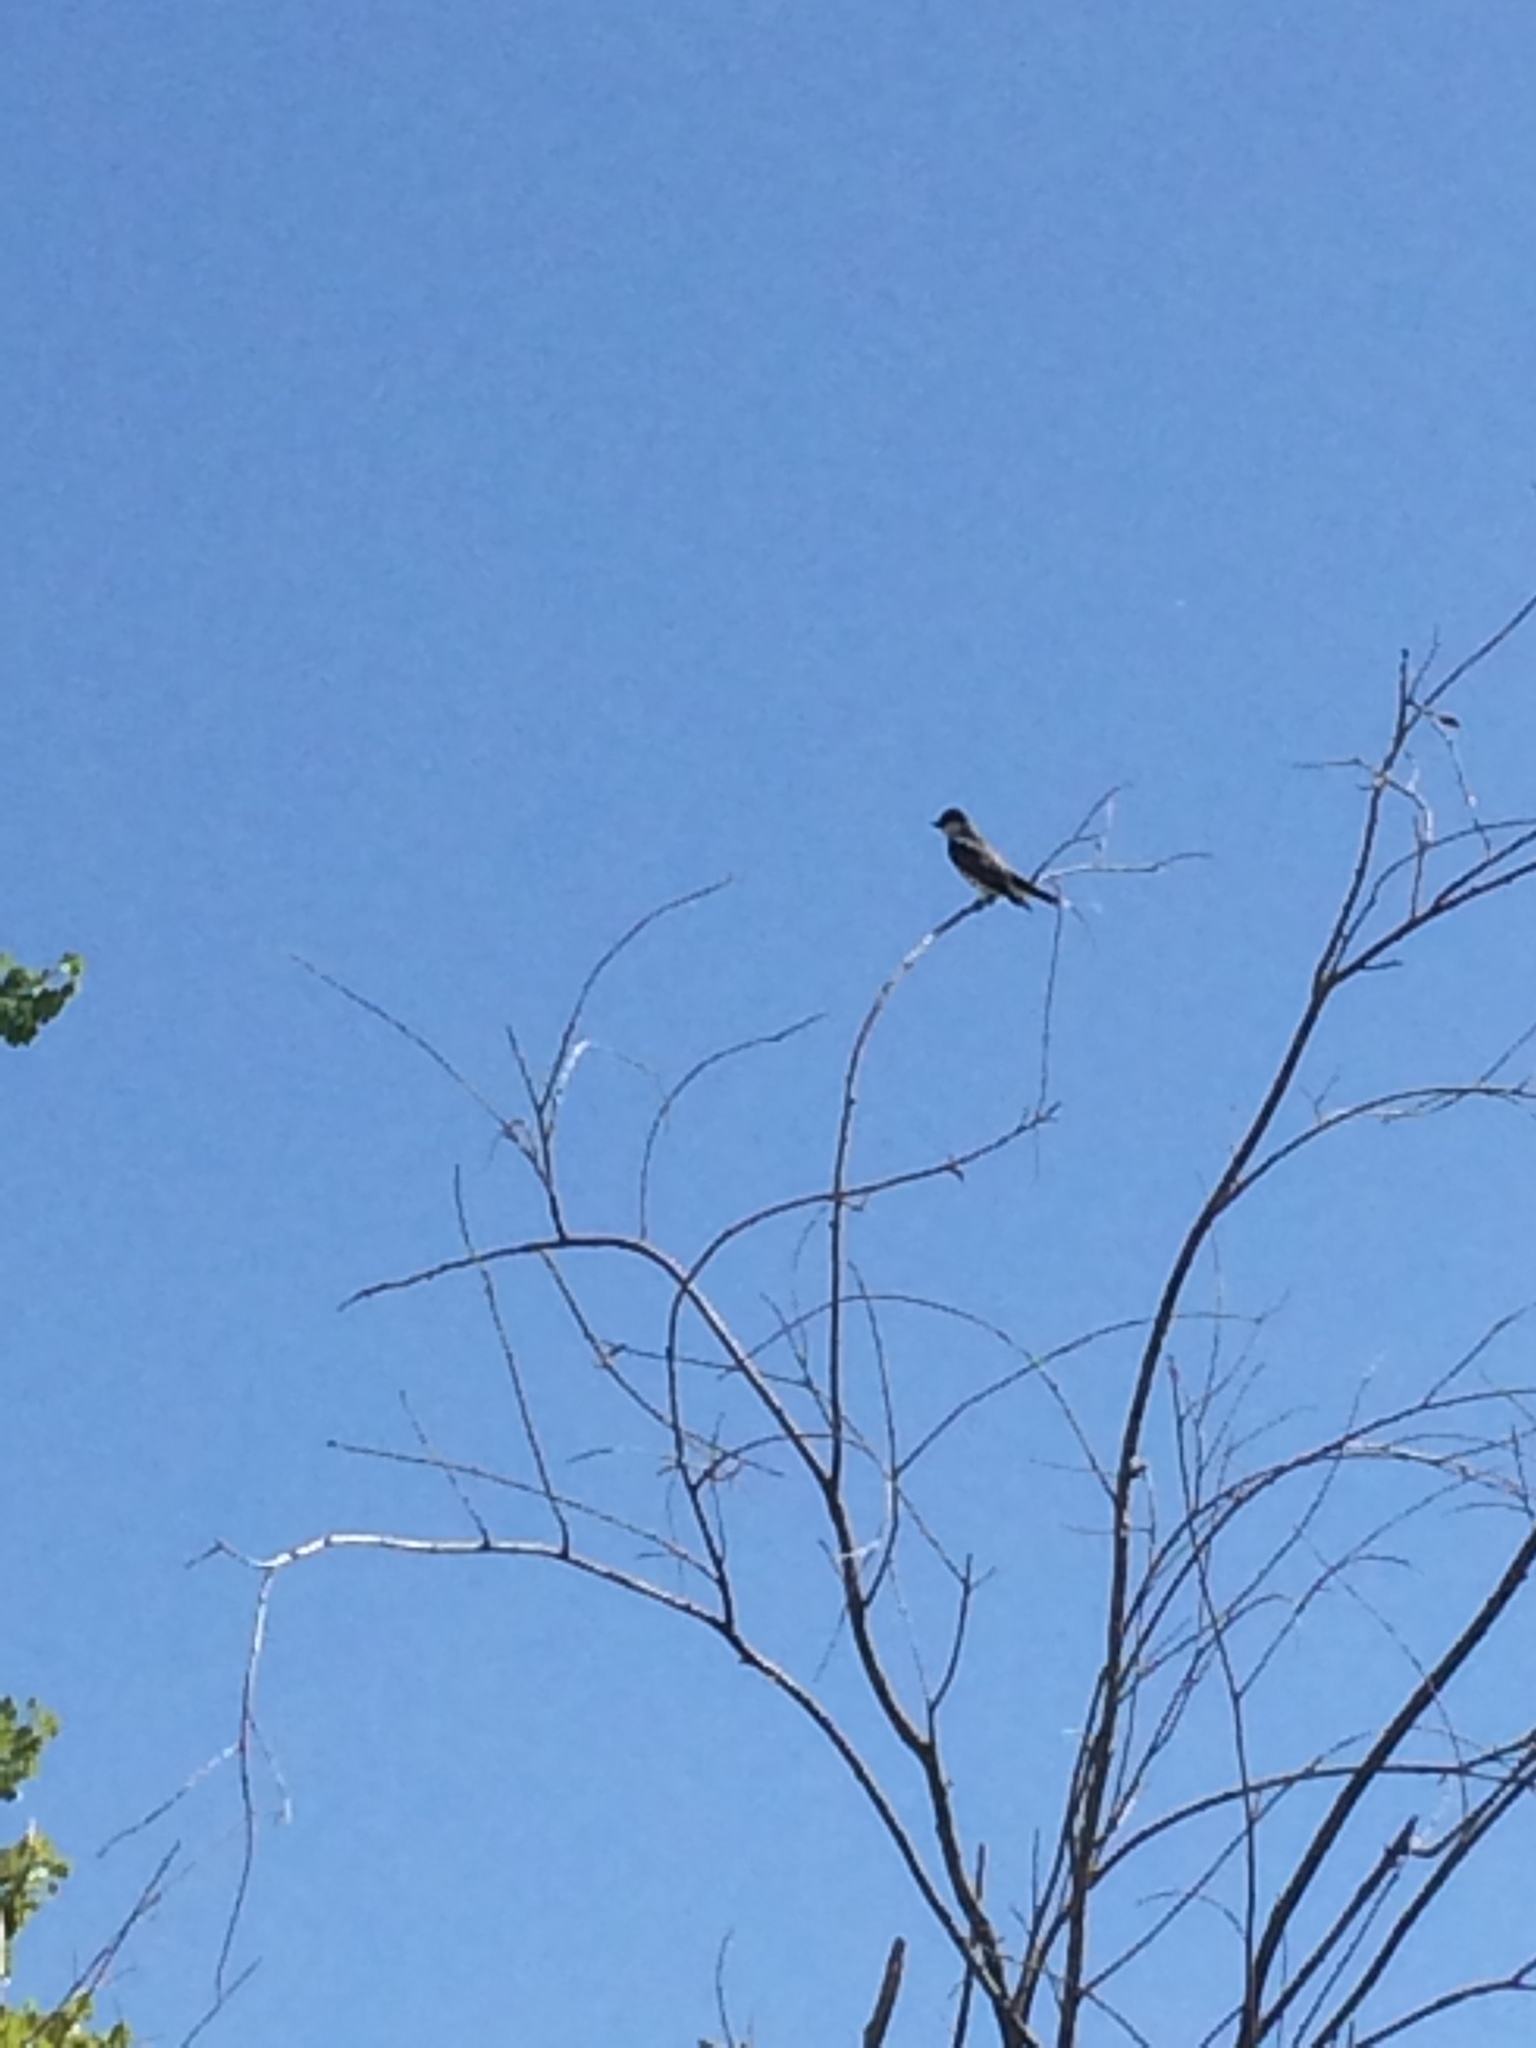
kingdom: Animalia
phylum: Chordata
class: Aves
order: Passeriformes
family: Tyrannidae
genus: Tyrannus
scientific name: Tyrannus tyrannus
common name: Eastern kingbird
